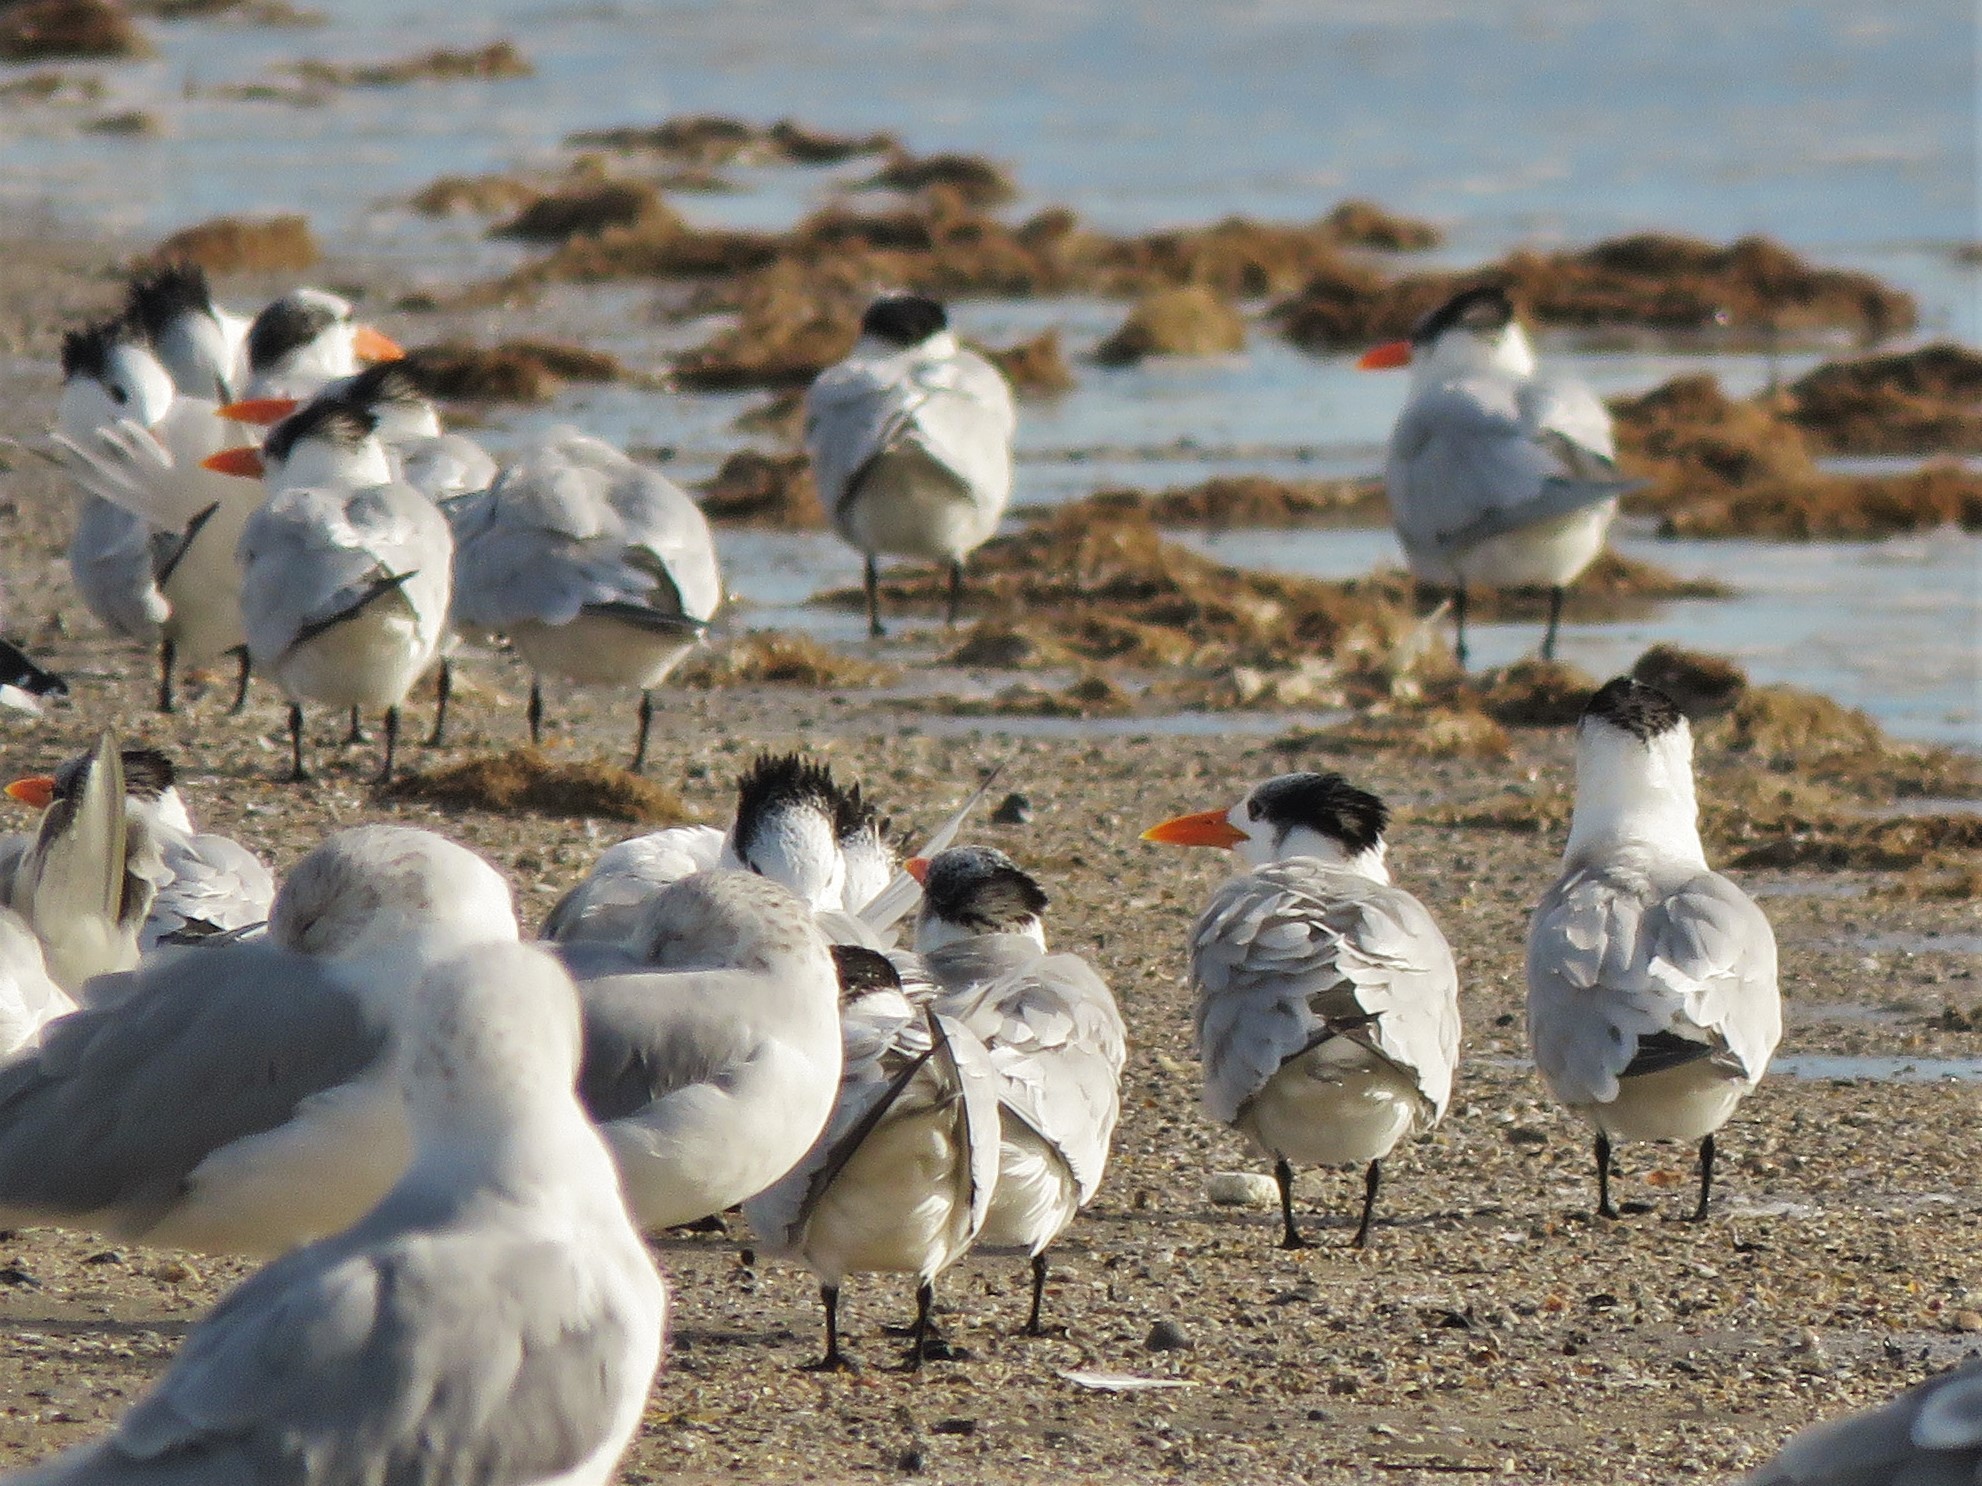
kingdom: Animalia
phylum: Chordata
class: Aves
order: Charadriiformes
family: Laridae
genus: Thalasseus
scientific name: Thalasseus maximus
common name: Royal tern
